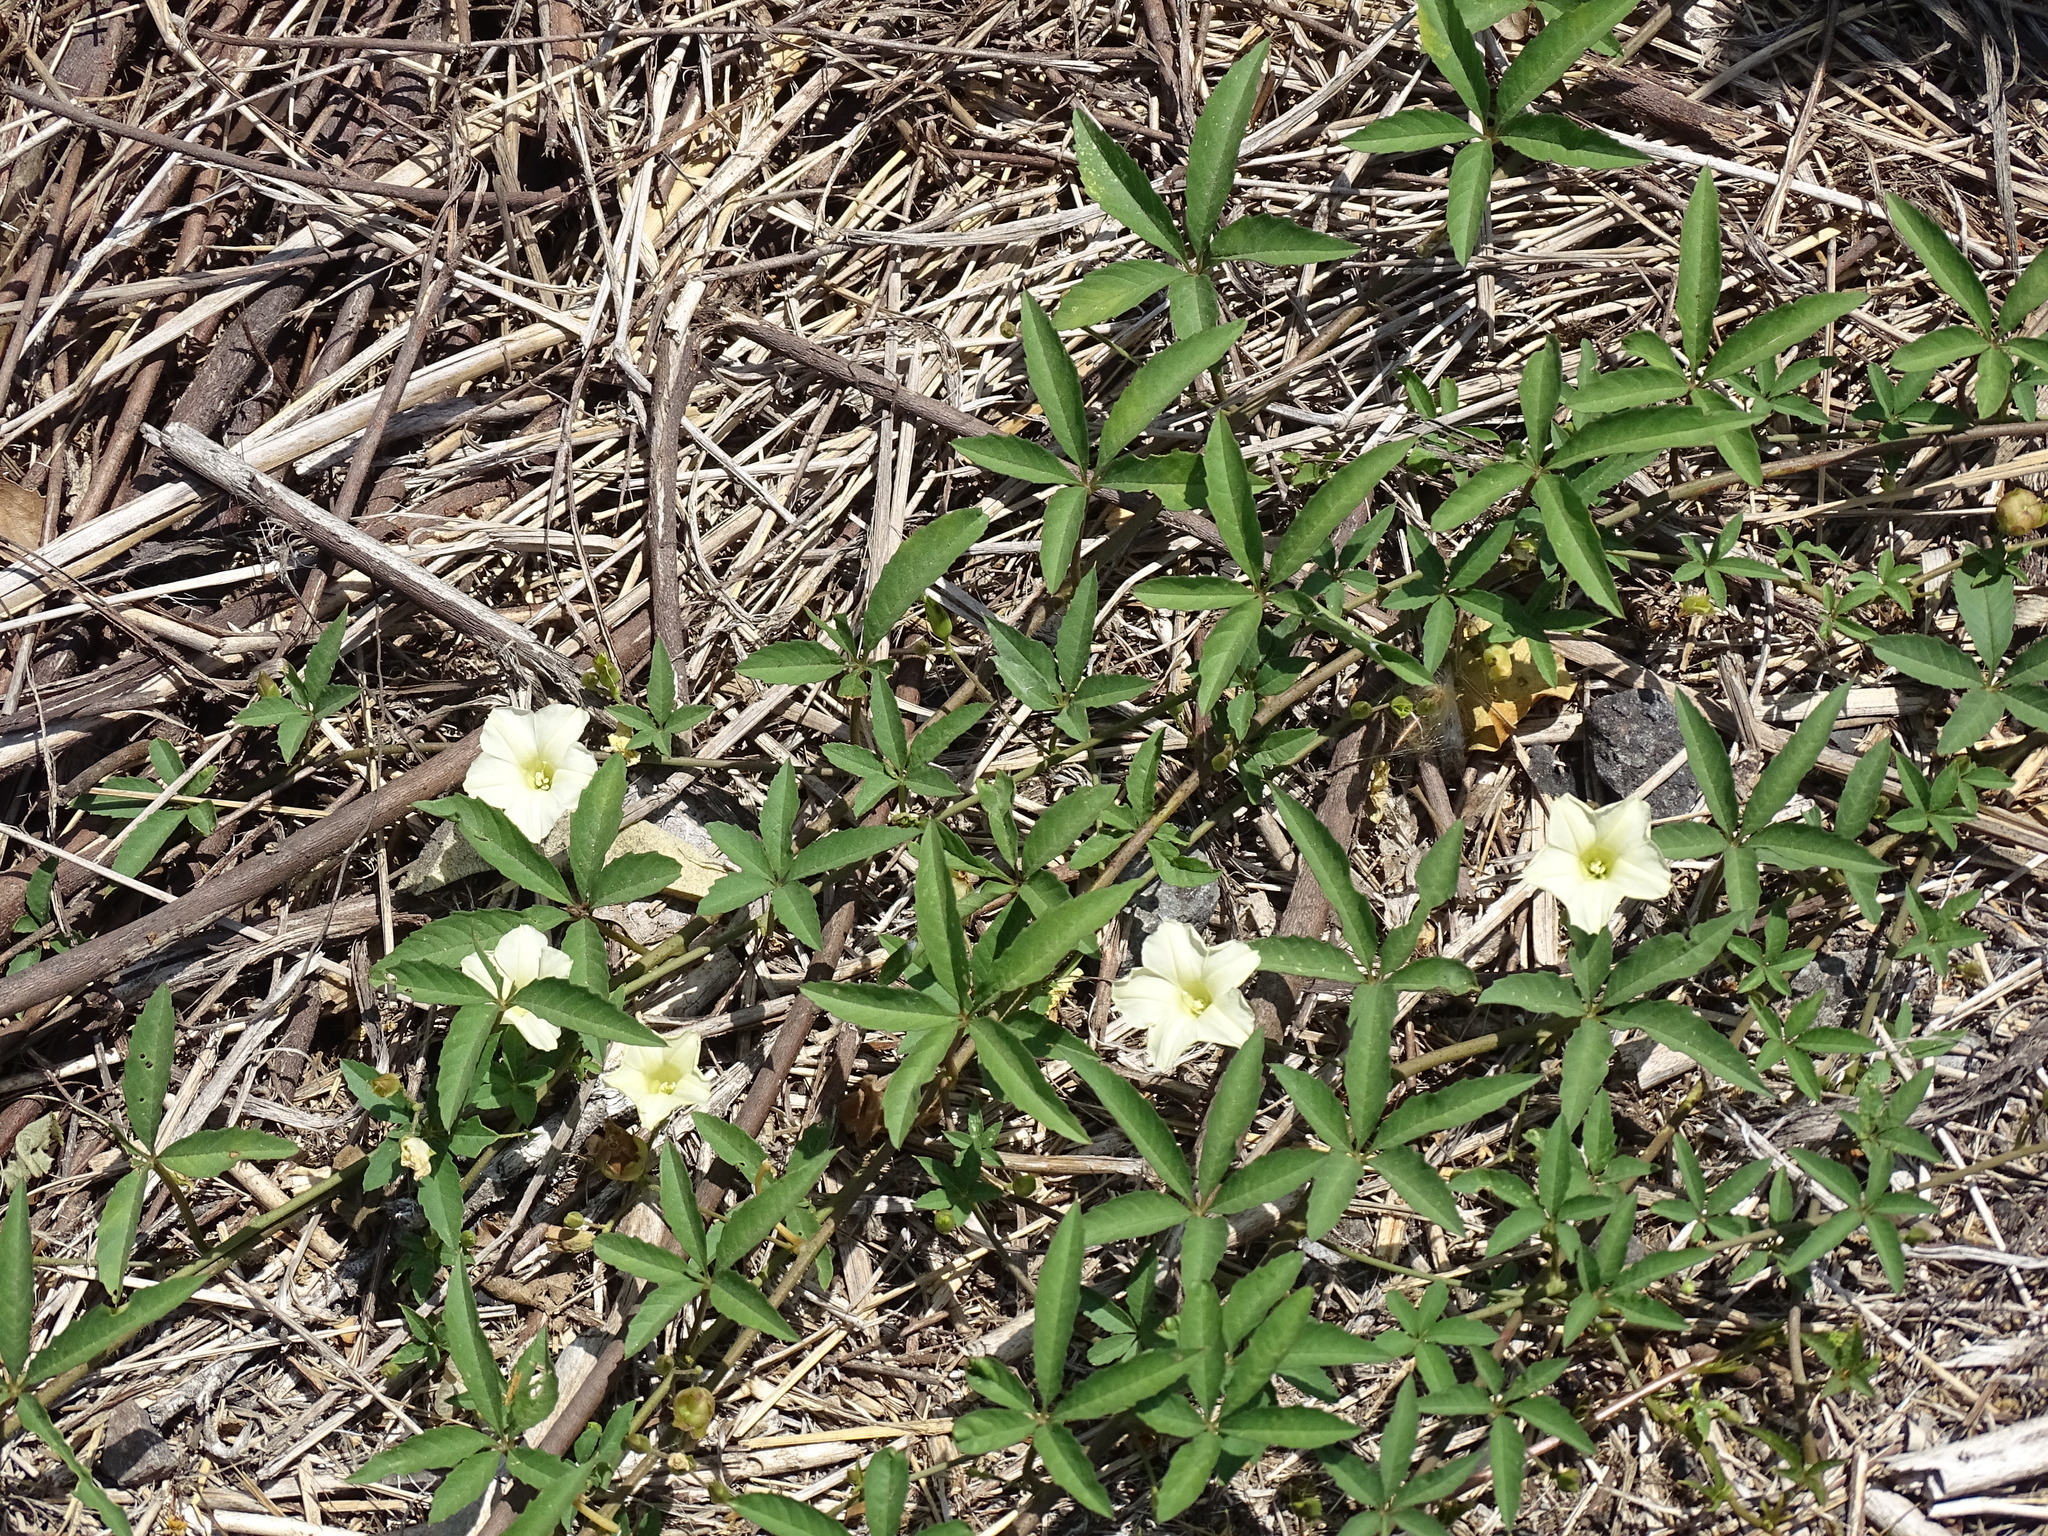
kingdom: Plantae
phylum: Tracheophyta
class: Magnoliopsida
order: Solanales
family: Convolvulaceae
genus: Distimake
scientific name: Distimake quinquefolius
